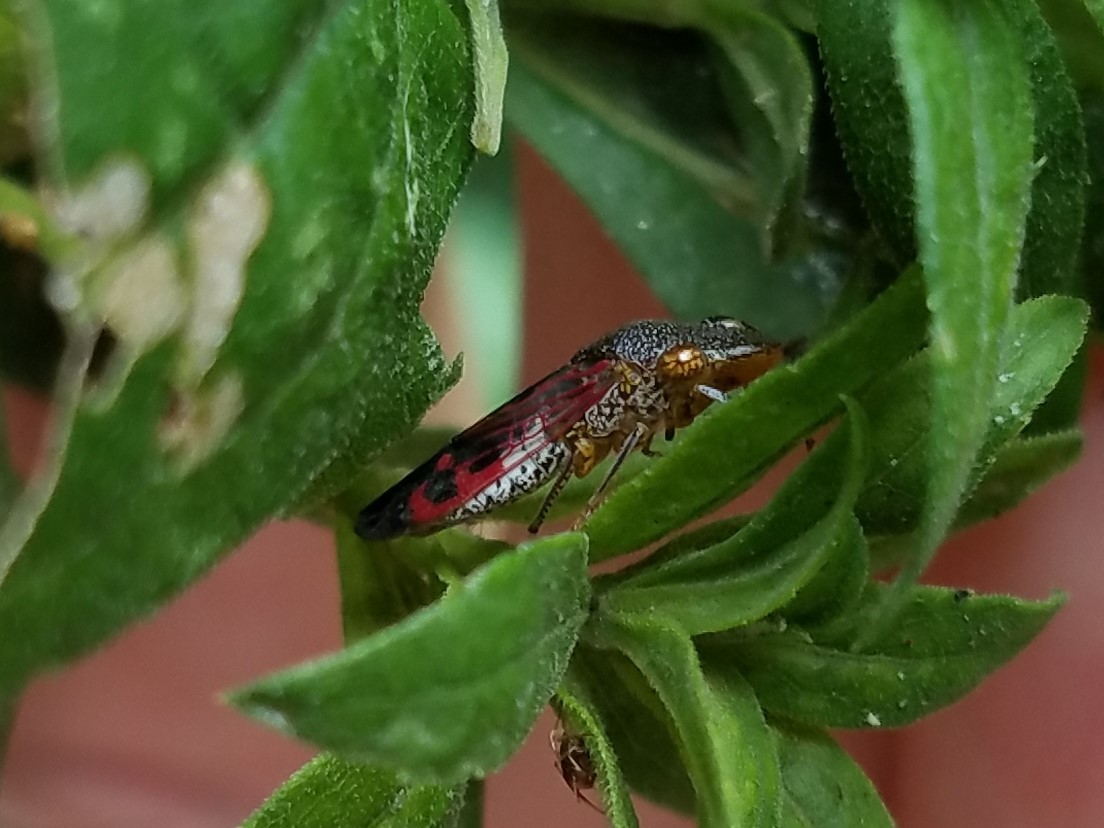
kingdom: Animalia
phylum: Arthropoda
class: Insecta
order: Hemiptera
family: Cicadellidae
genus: Homalodisca
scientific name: Homalodisca vitripennis
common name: Glassy-winged sharpshooter
